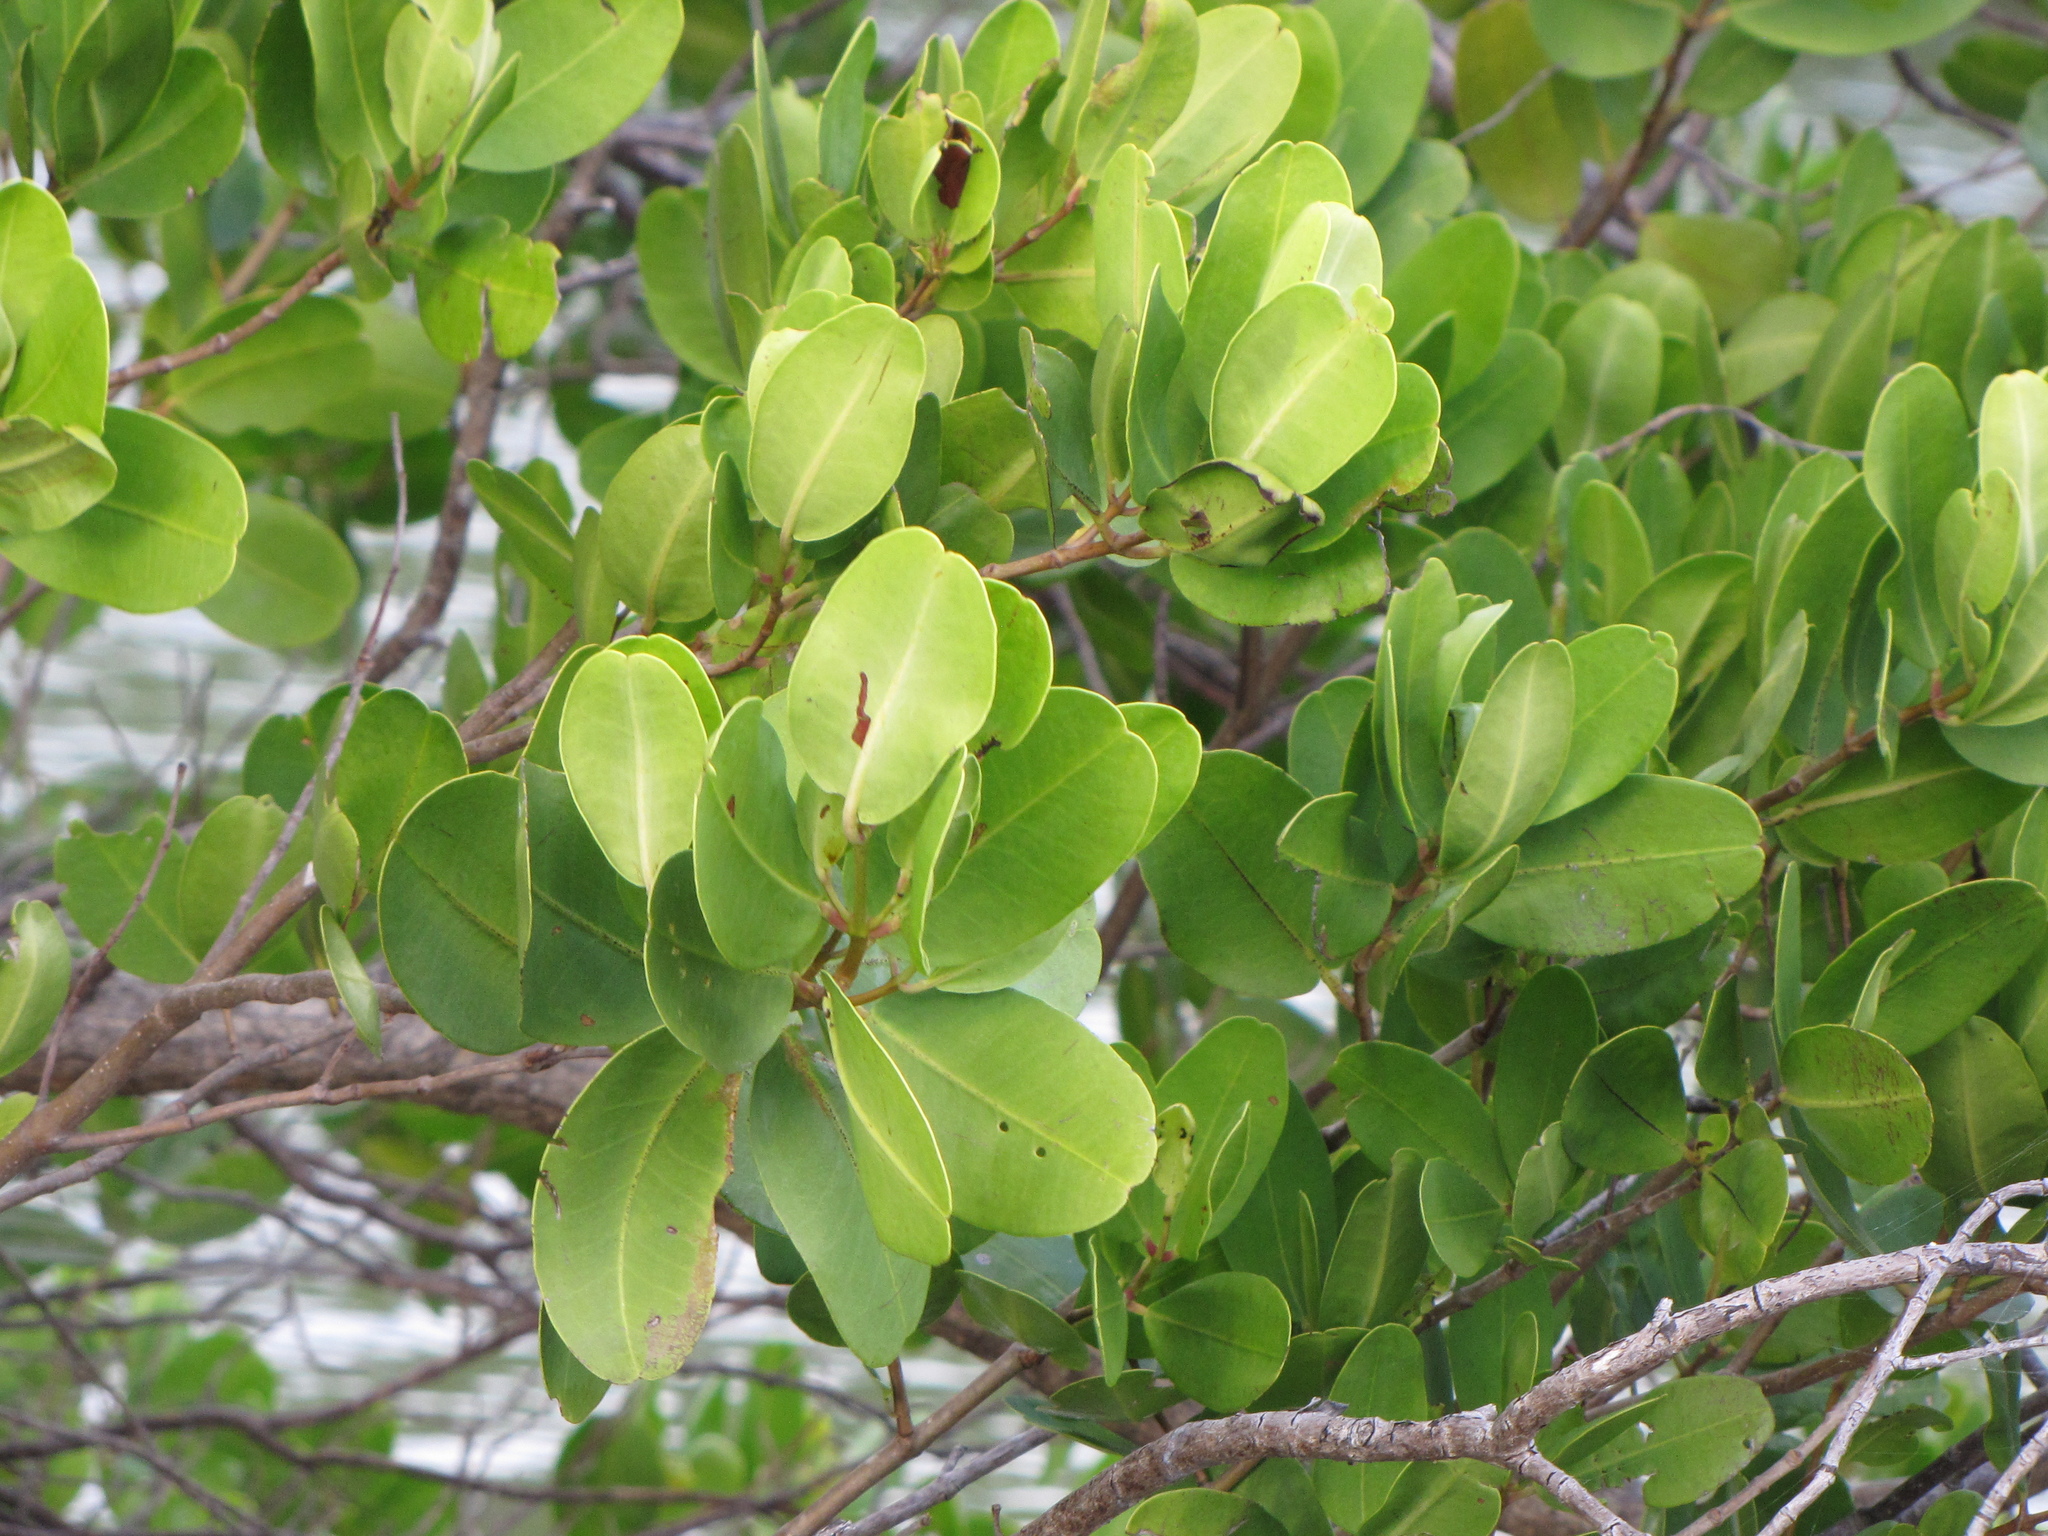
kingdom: Plantae
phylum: Tracheophyta
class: Magnoliopsida
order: Myrtales
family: Combretaceae
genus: Laguncularia
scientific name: Laguncularia racemosa
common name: White mangrove
